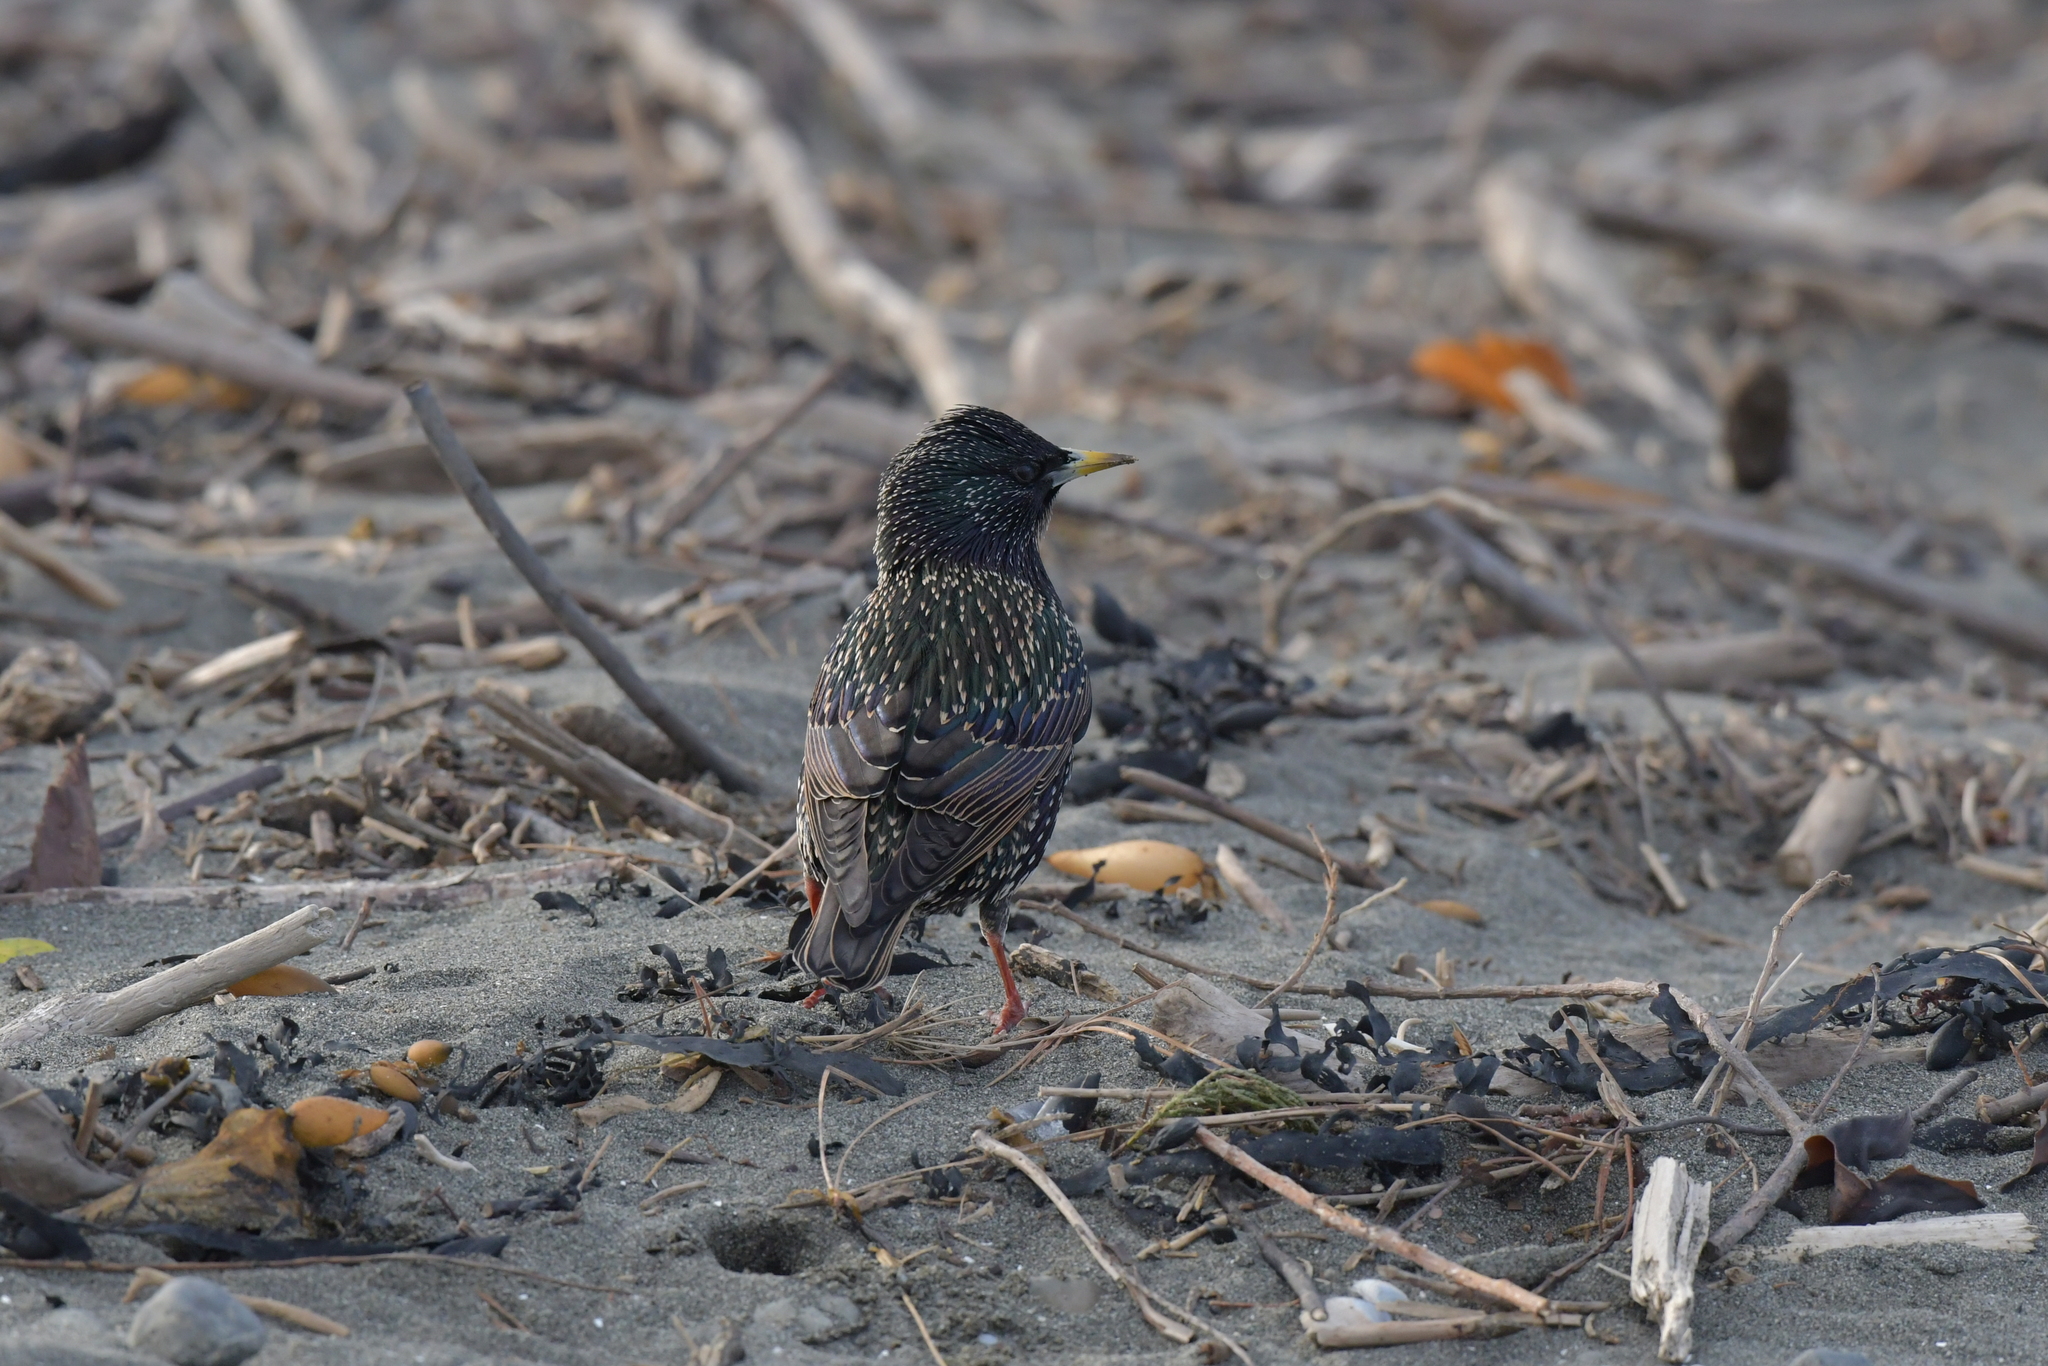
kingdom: Animalia
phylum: Chordata
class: Aves
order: Passeriformes
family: Sturnidae
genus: Sturnus
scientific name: Sturnus vulgaris
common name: Common starling
